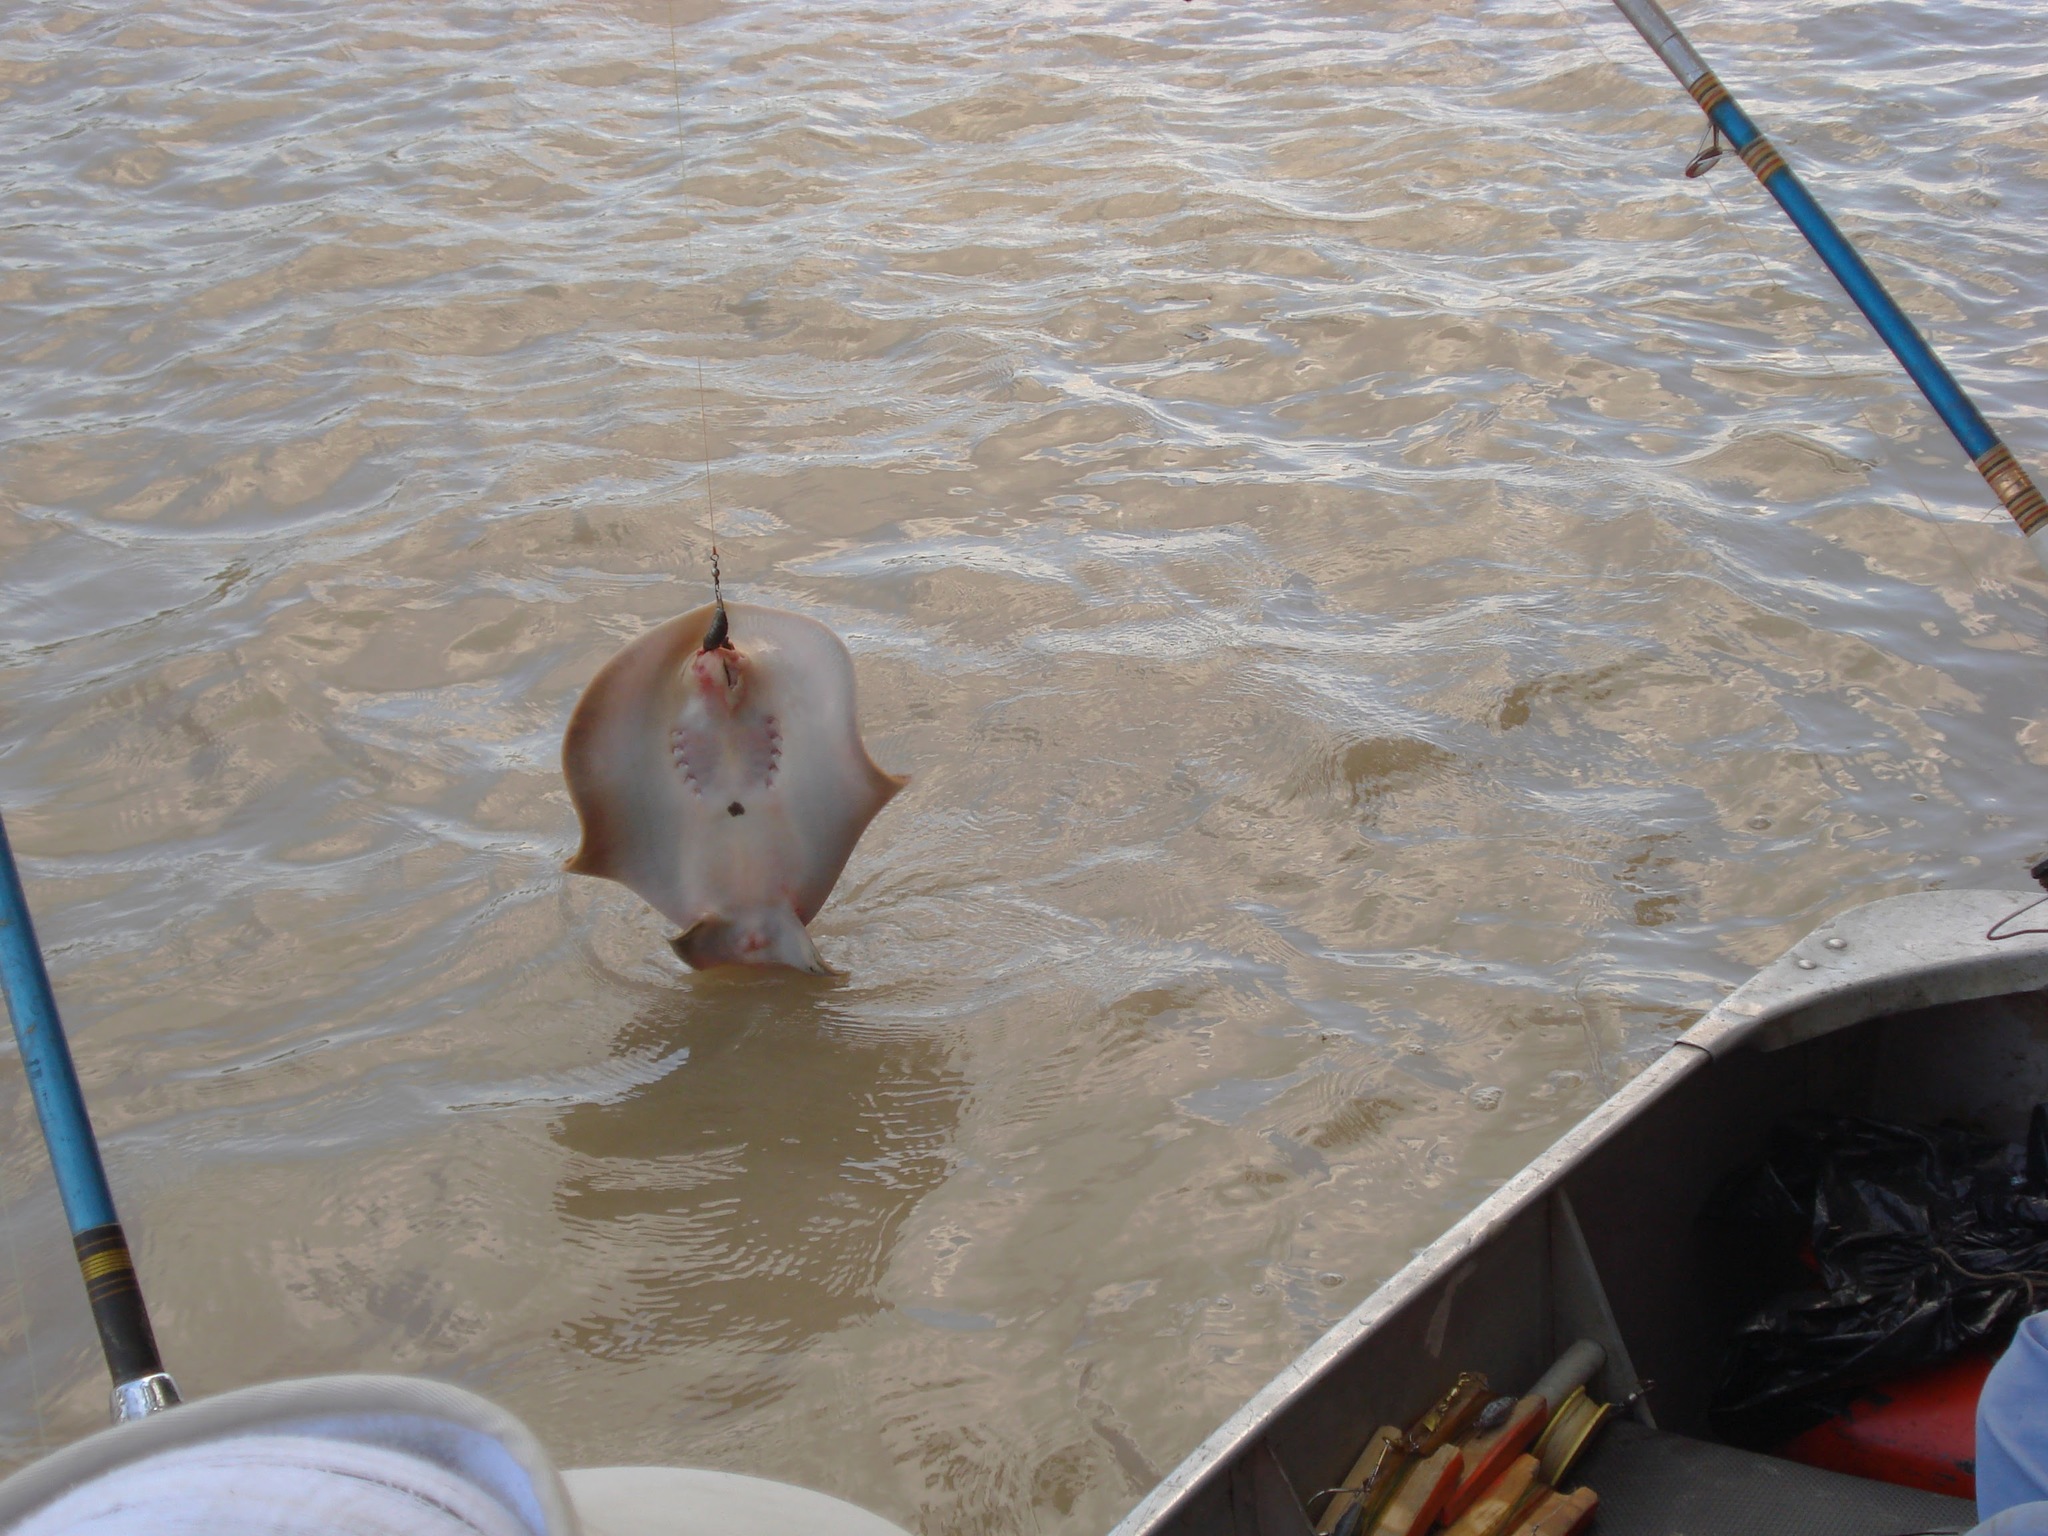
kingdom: Animalia
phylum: Chordata
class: Elasmobranchii
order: Myliobatiformes
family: Potamotrygonidae
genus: Potamotrygon
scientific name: Potamotrygon orbignyi
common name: Anglespot river stingray
